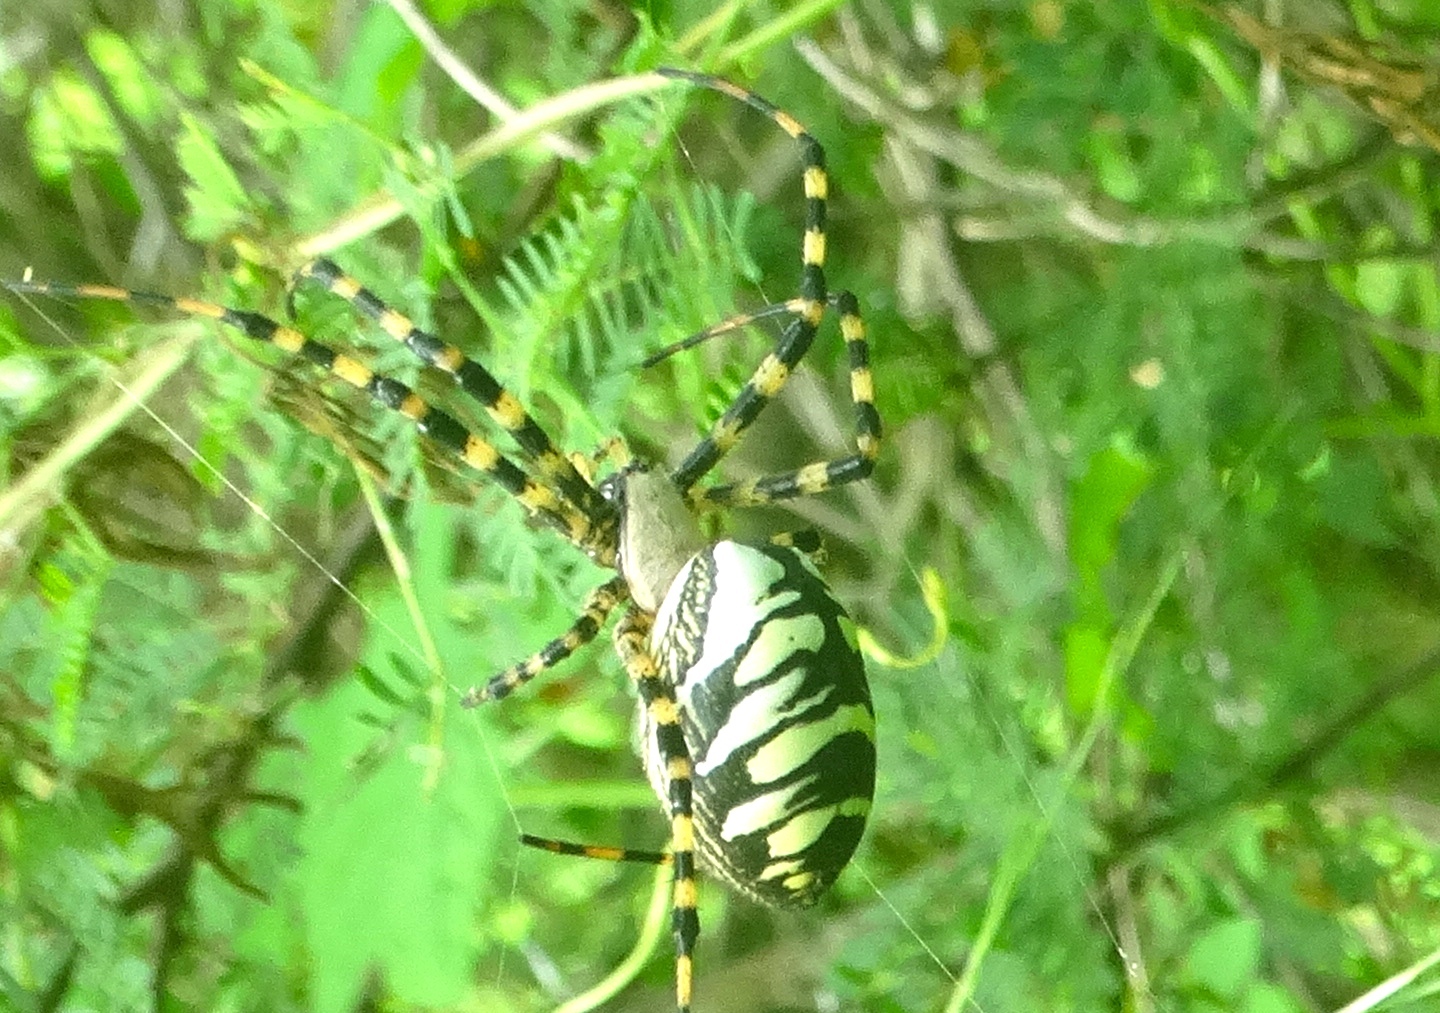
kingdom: Animalia
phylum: Arthropoda
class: Arachnida
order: Araneae
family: Araneidae
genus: Argiope
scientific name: Argiope aurantia
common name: Orb weavers
